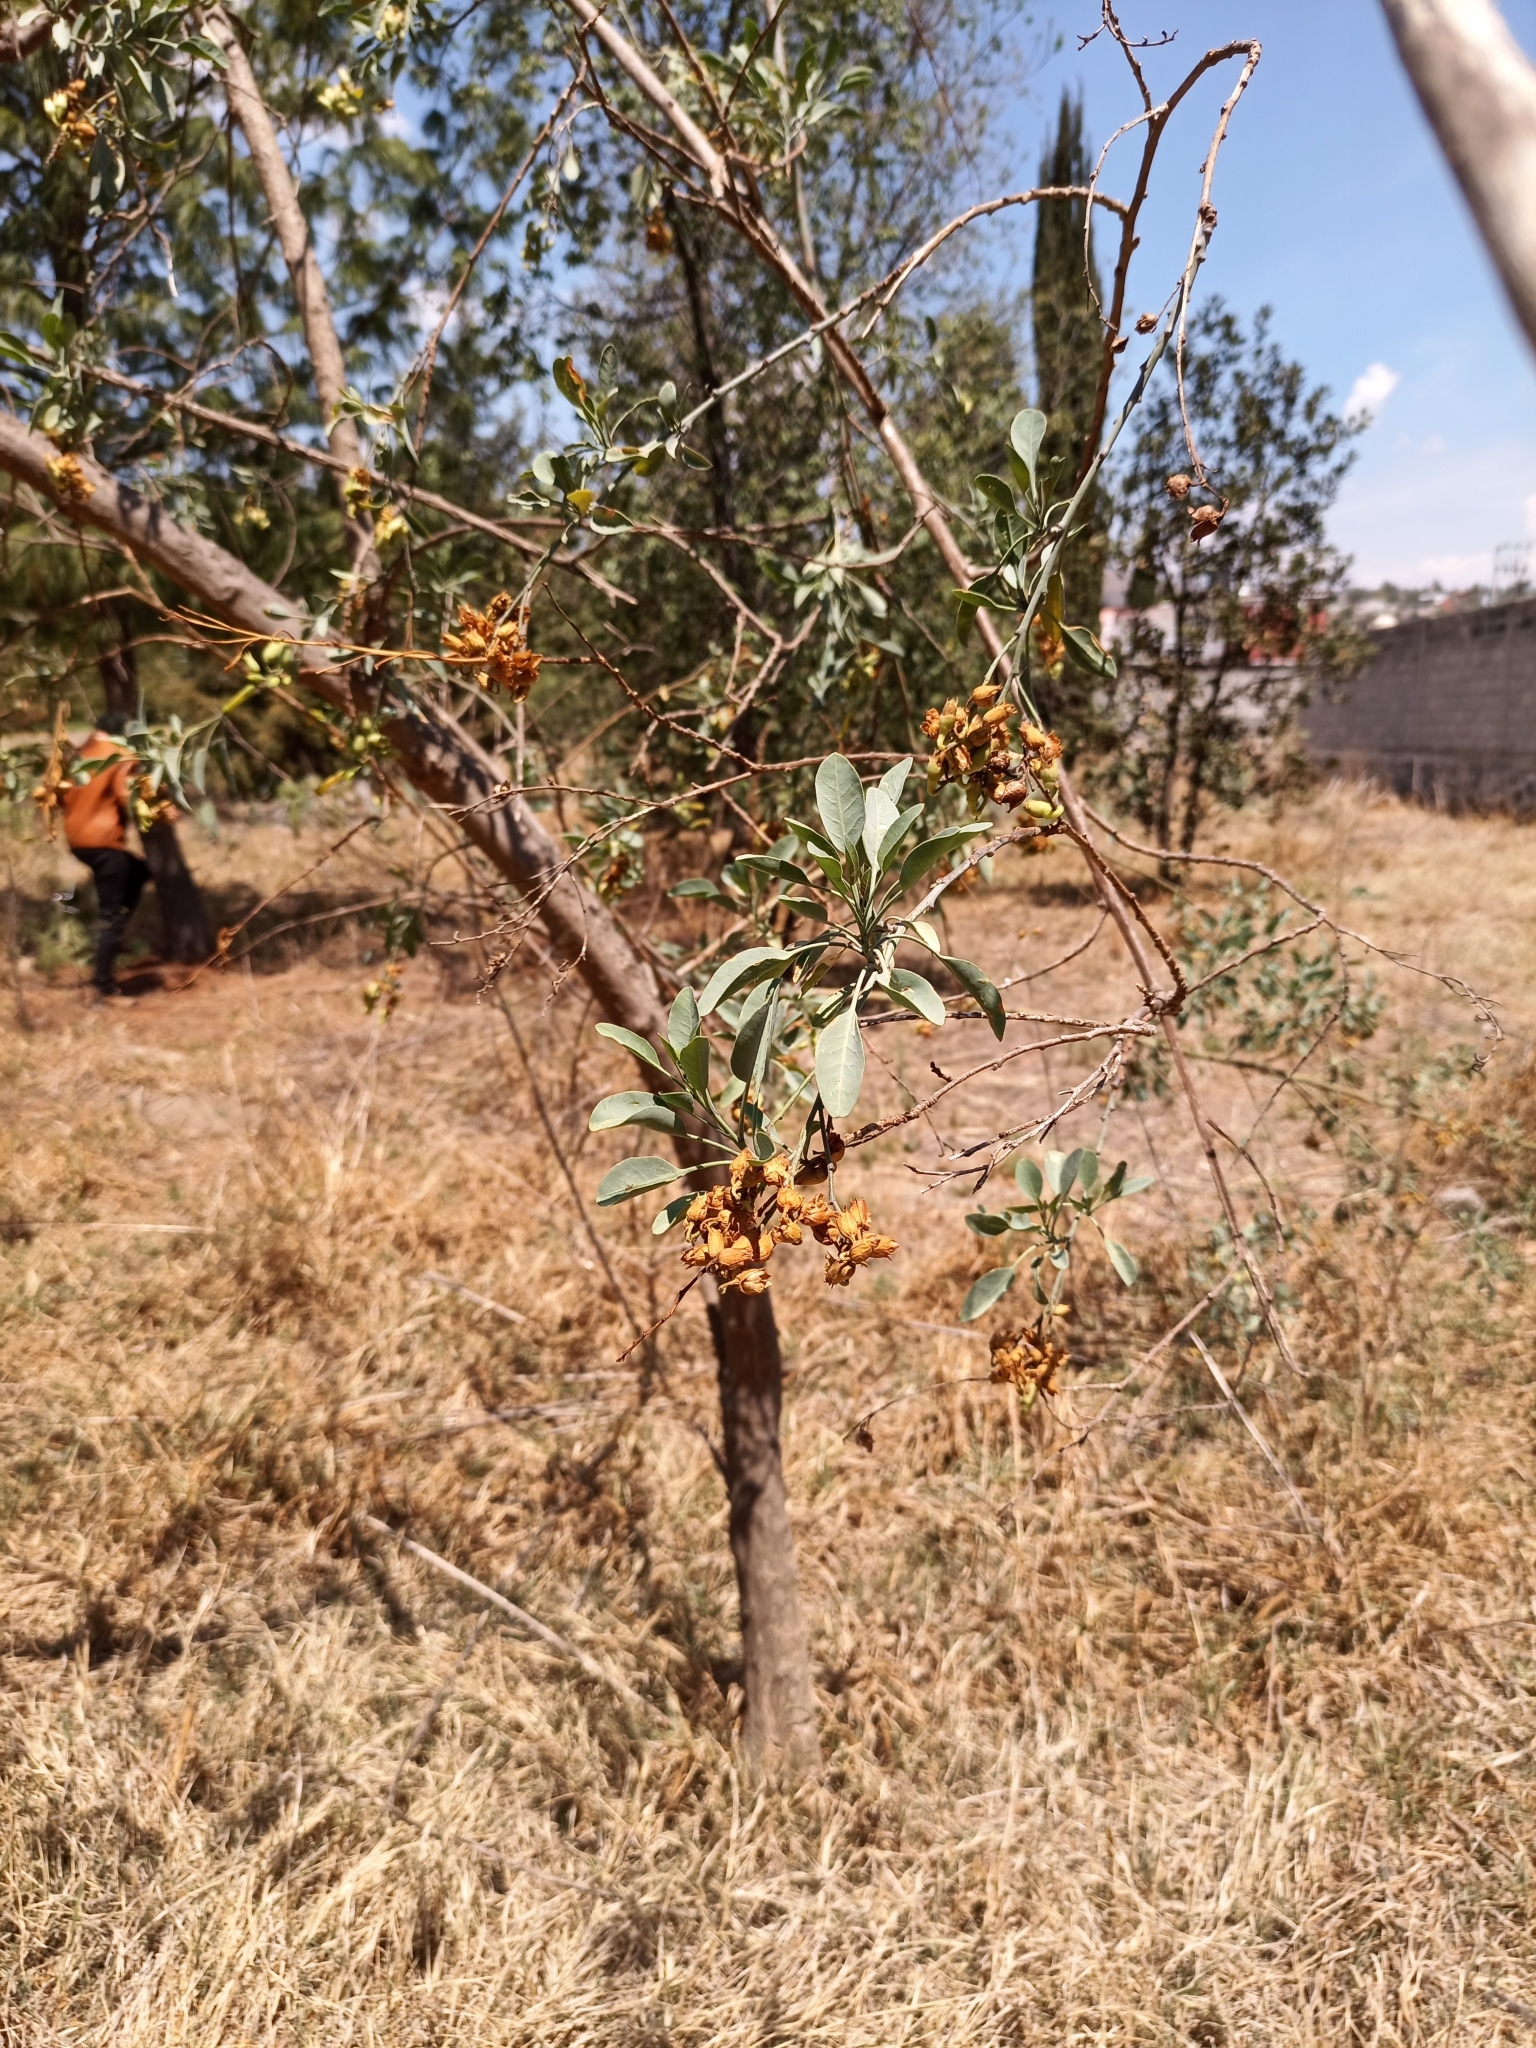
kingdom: Plantae
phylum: Tracheophyta
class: Magnoliopsida
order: Solanales
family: Solanaceae
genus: Nicotiana
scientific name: Nicotiana glauca
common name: Tree tobacco
